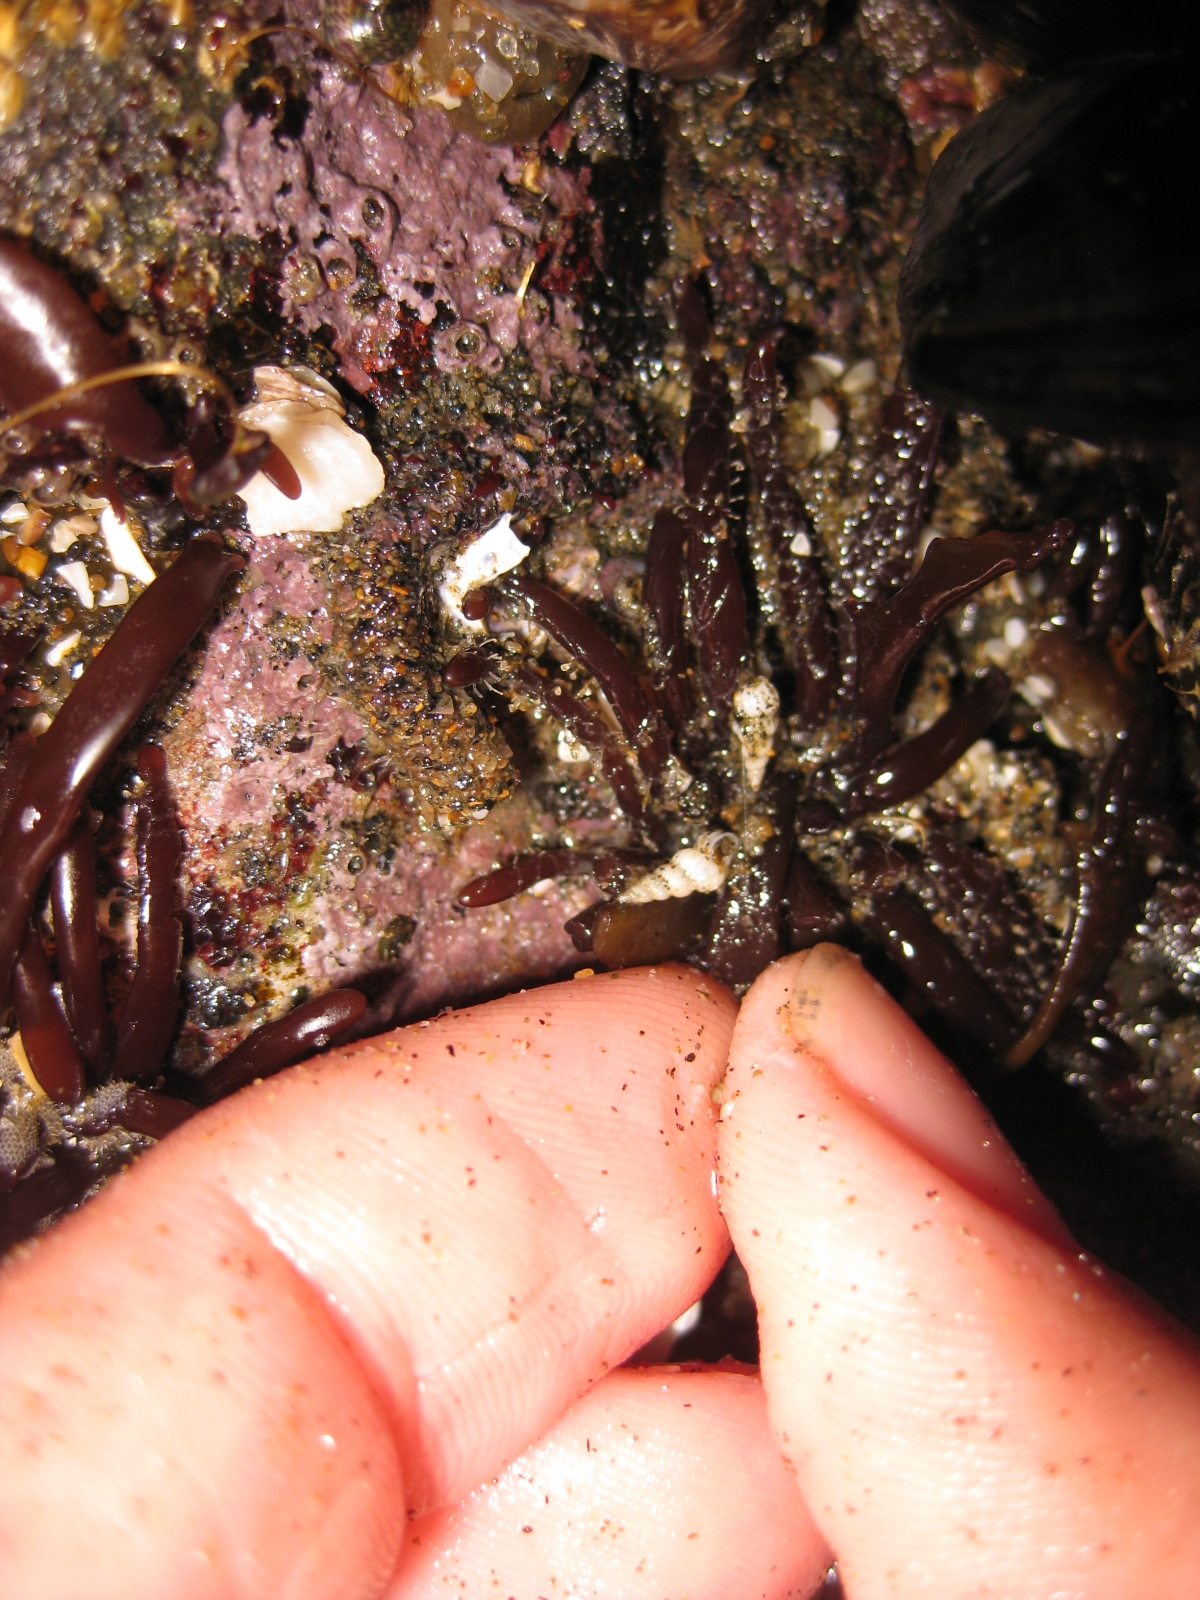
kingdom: Animalia
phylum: Mollusca
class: Gastropoda
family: Epitoniidae
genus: Epitonium
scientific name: Epitonium jukesianum
